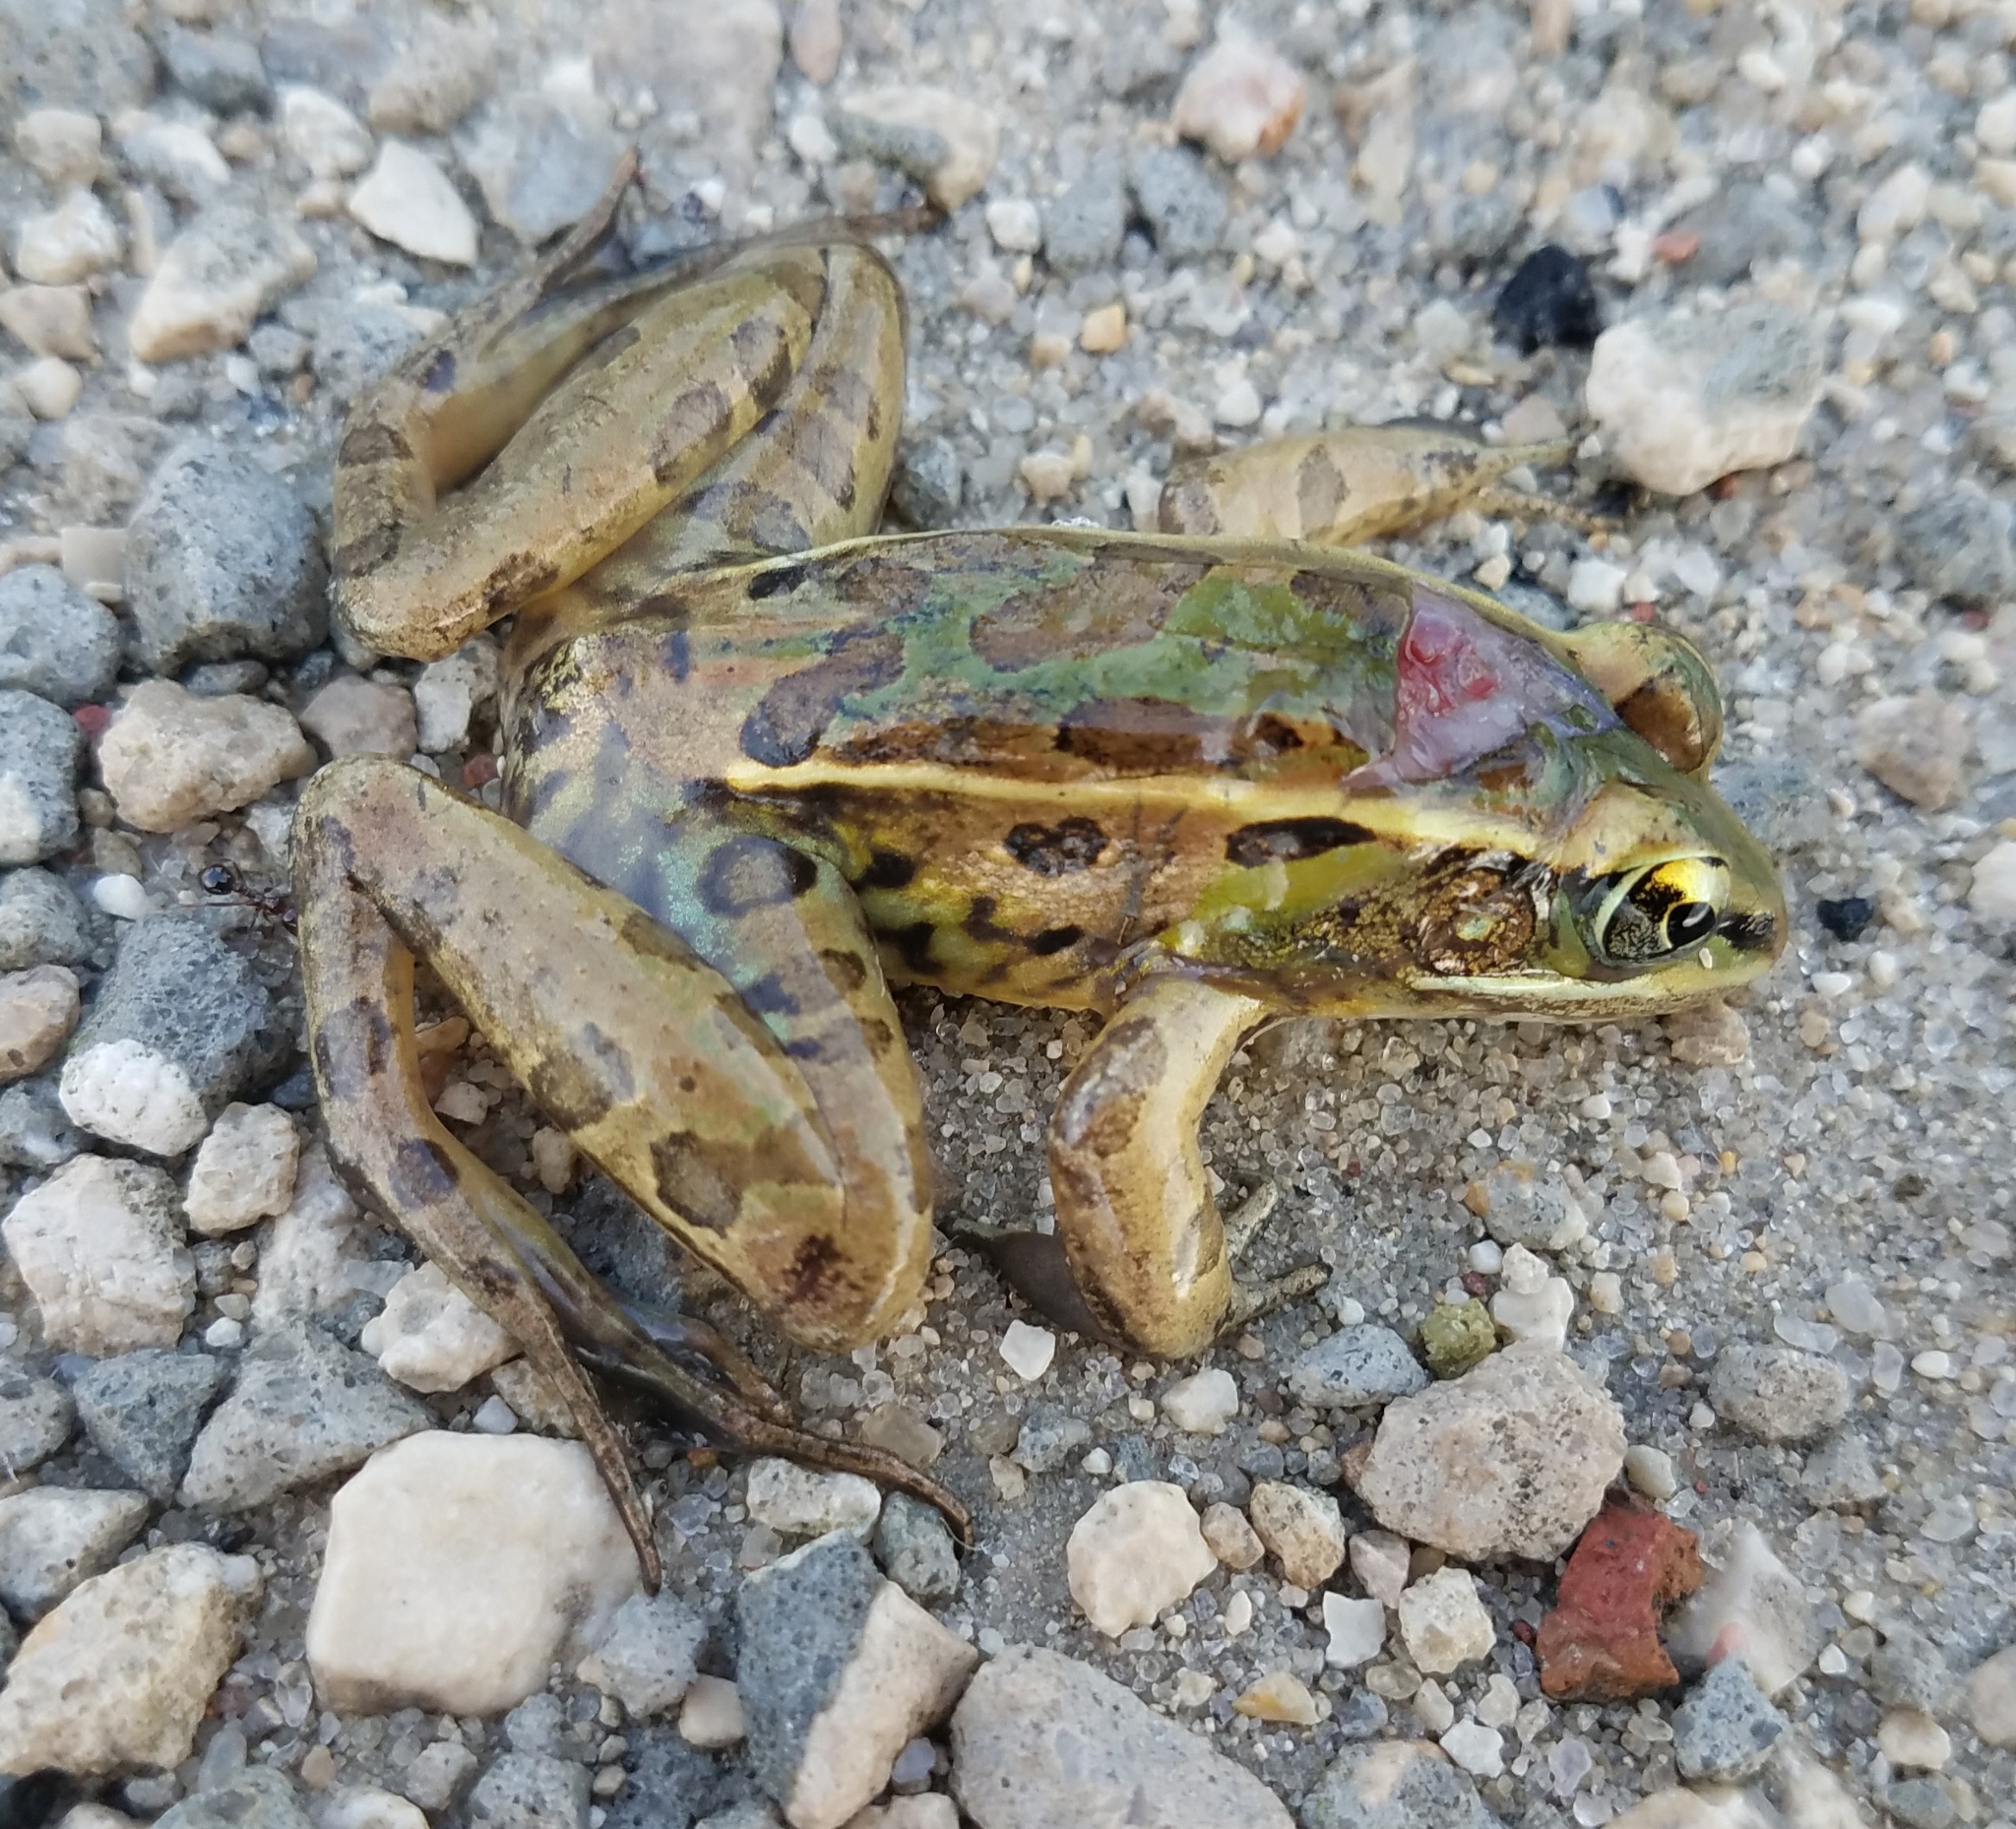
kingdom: Animalia
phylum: Chordata
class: Amphibia
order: Anura
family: Ranidae
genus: Lithobates
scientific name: Lithobates sphenocephalus
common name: Southern leopard frog
